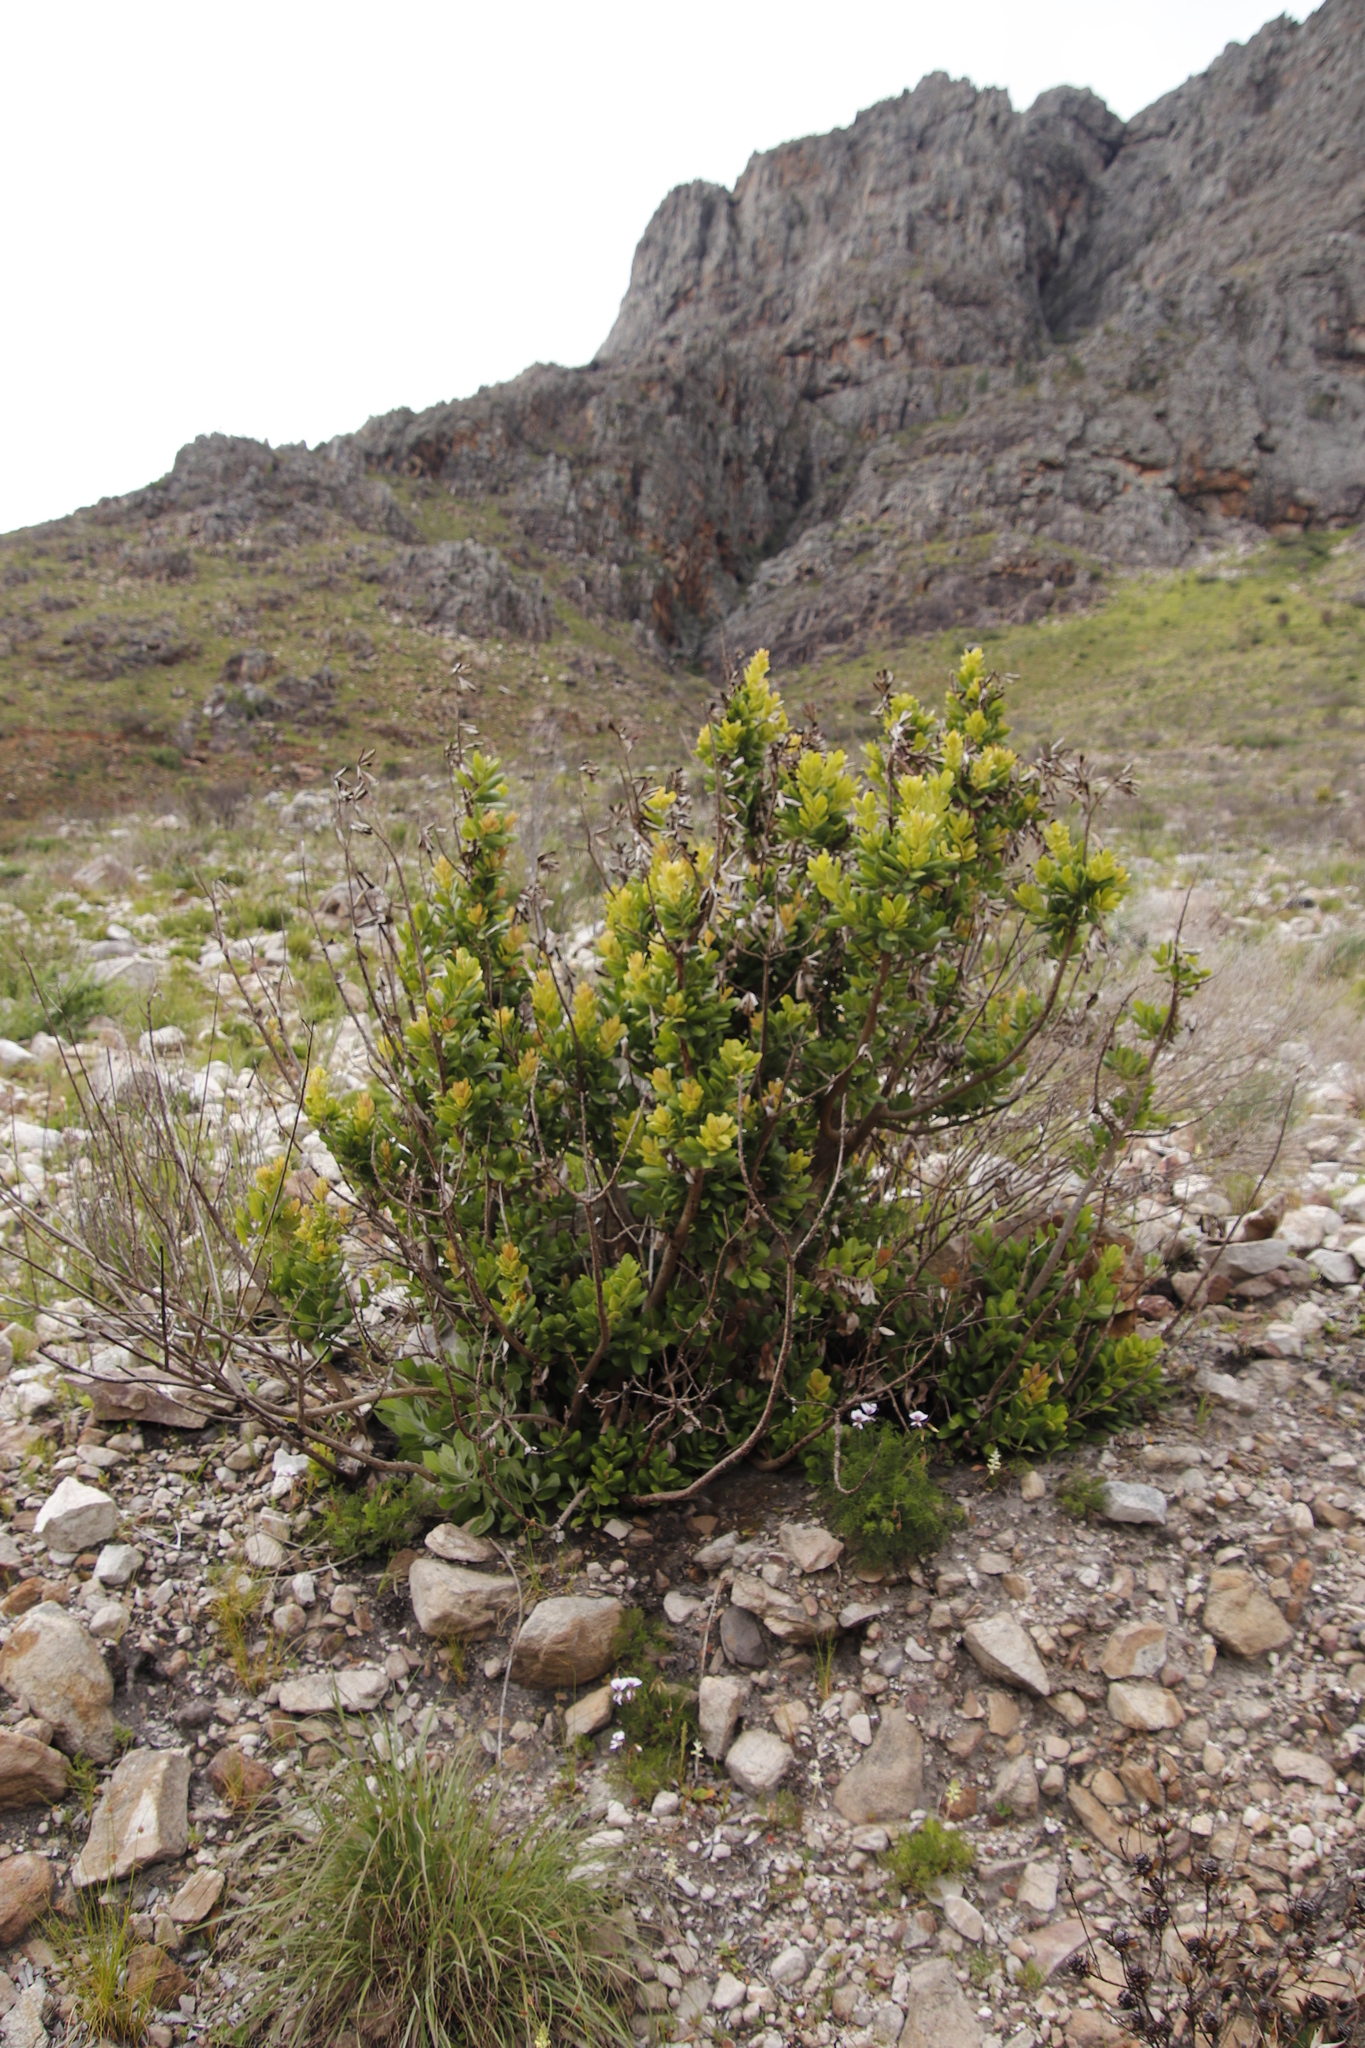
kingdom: Plantae
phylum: Tracheophyta
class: Magnoliopsida
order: Sapindales
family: Anacardiaceae
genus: Heeria
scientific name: Heeria argentea
